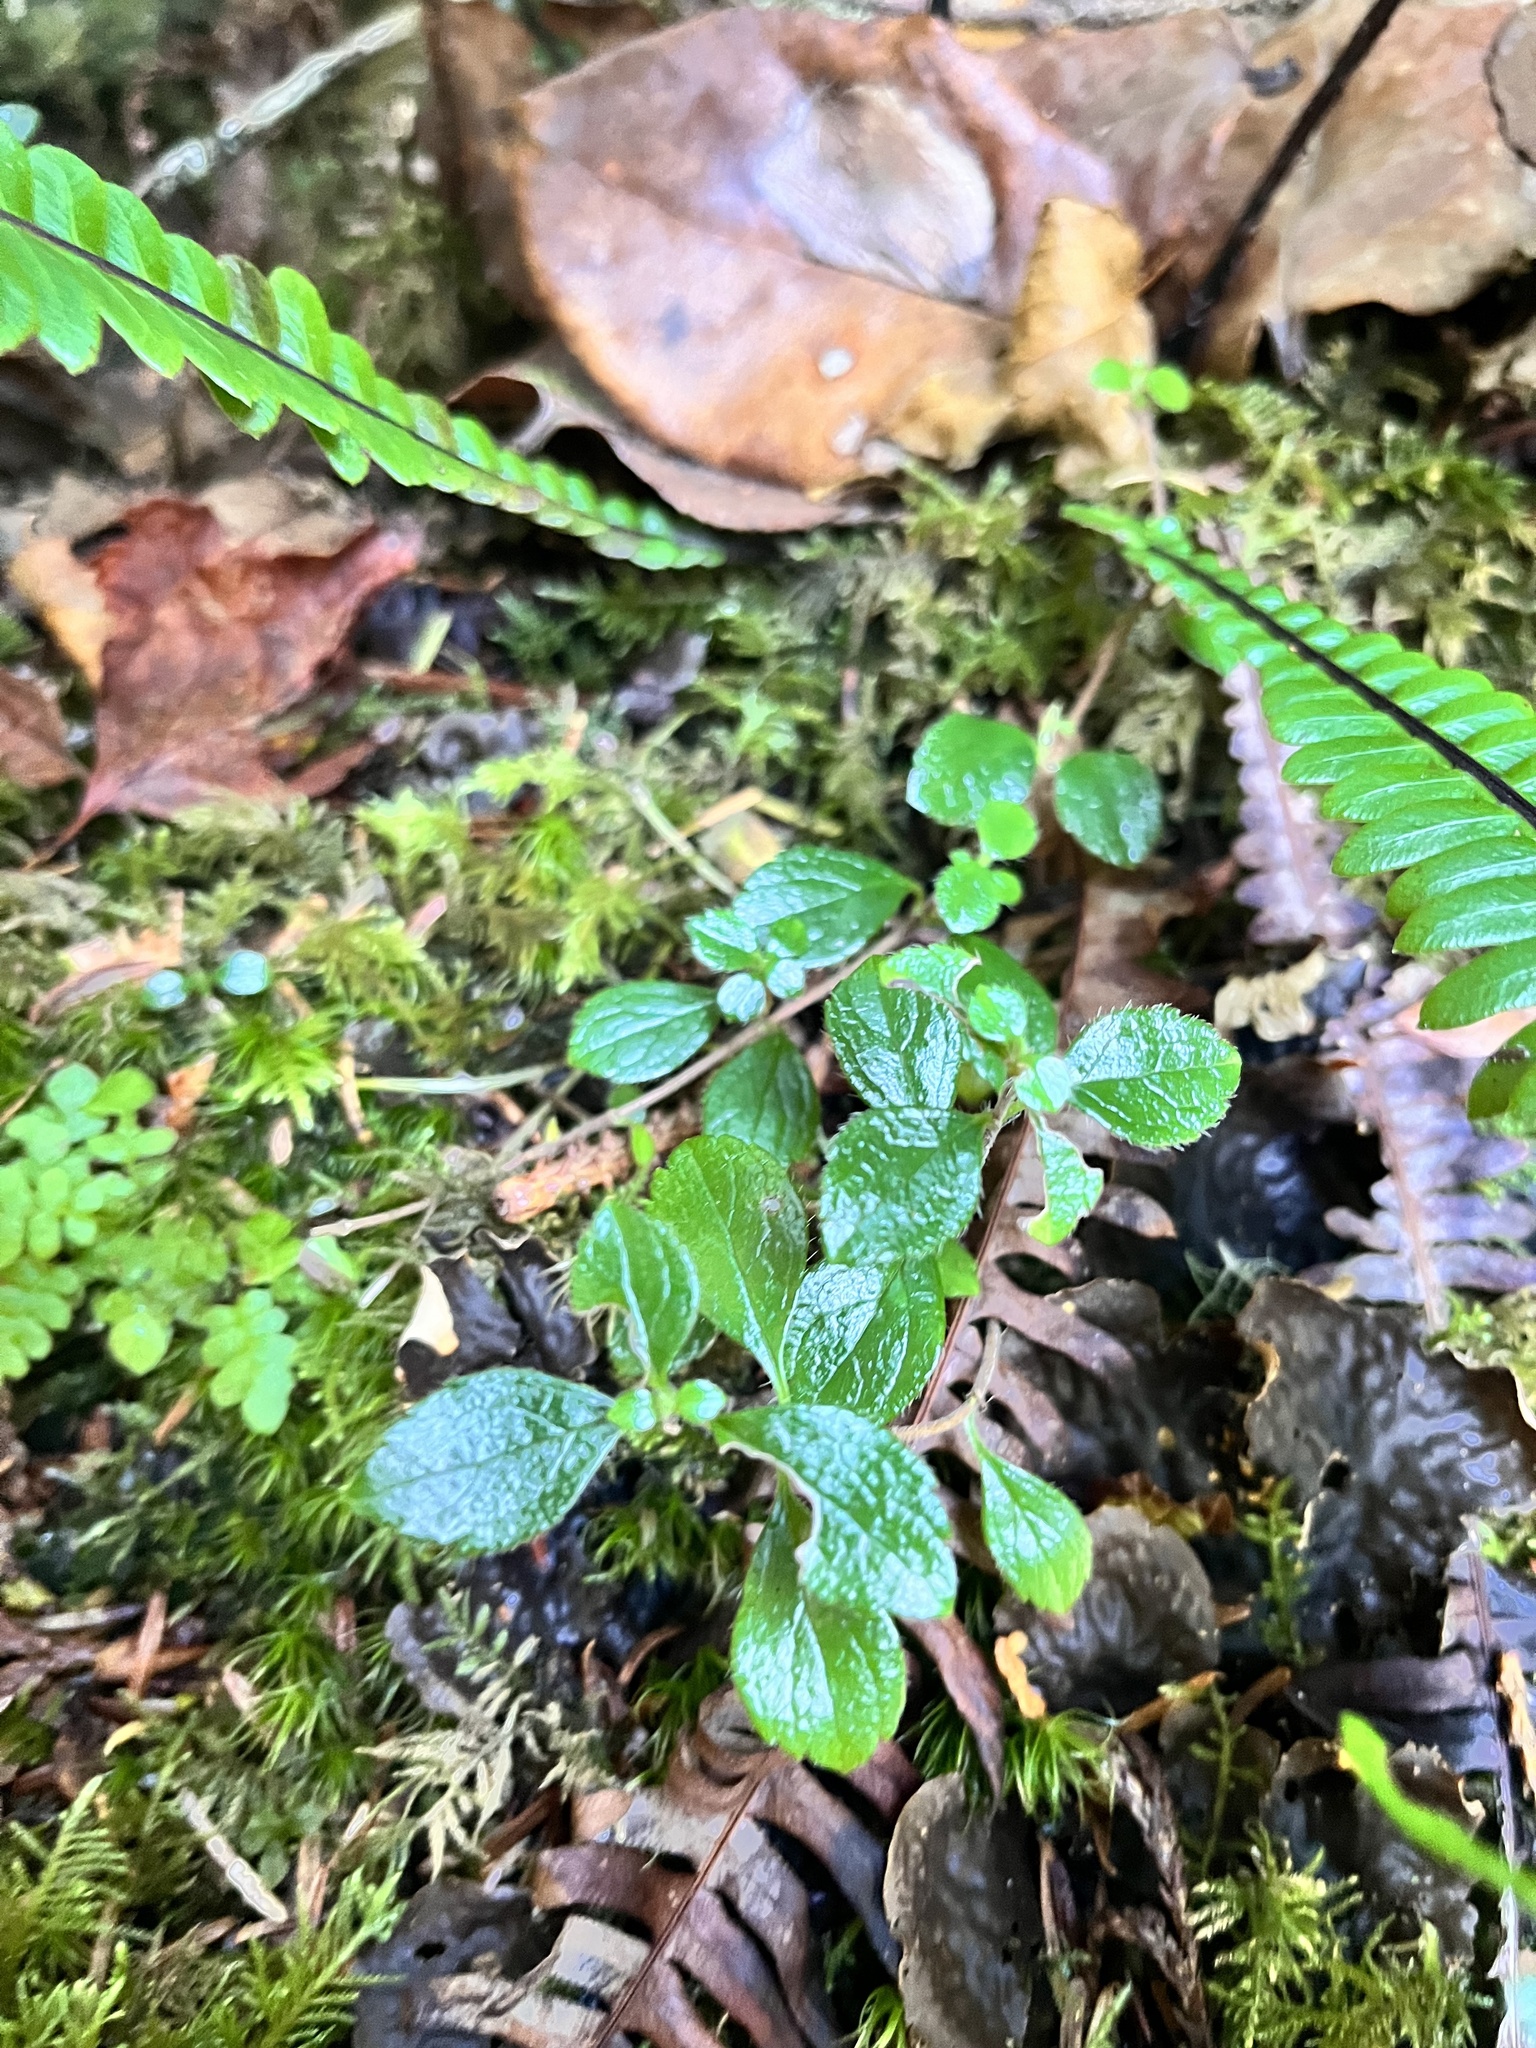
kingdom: Plantae
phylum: Tracheophyta
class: Magnoliopsida
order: Dipsacales
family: Caprifoliaceae
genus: Linnaea
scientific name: Linnaea borealis
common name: Twinflower
